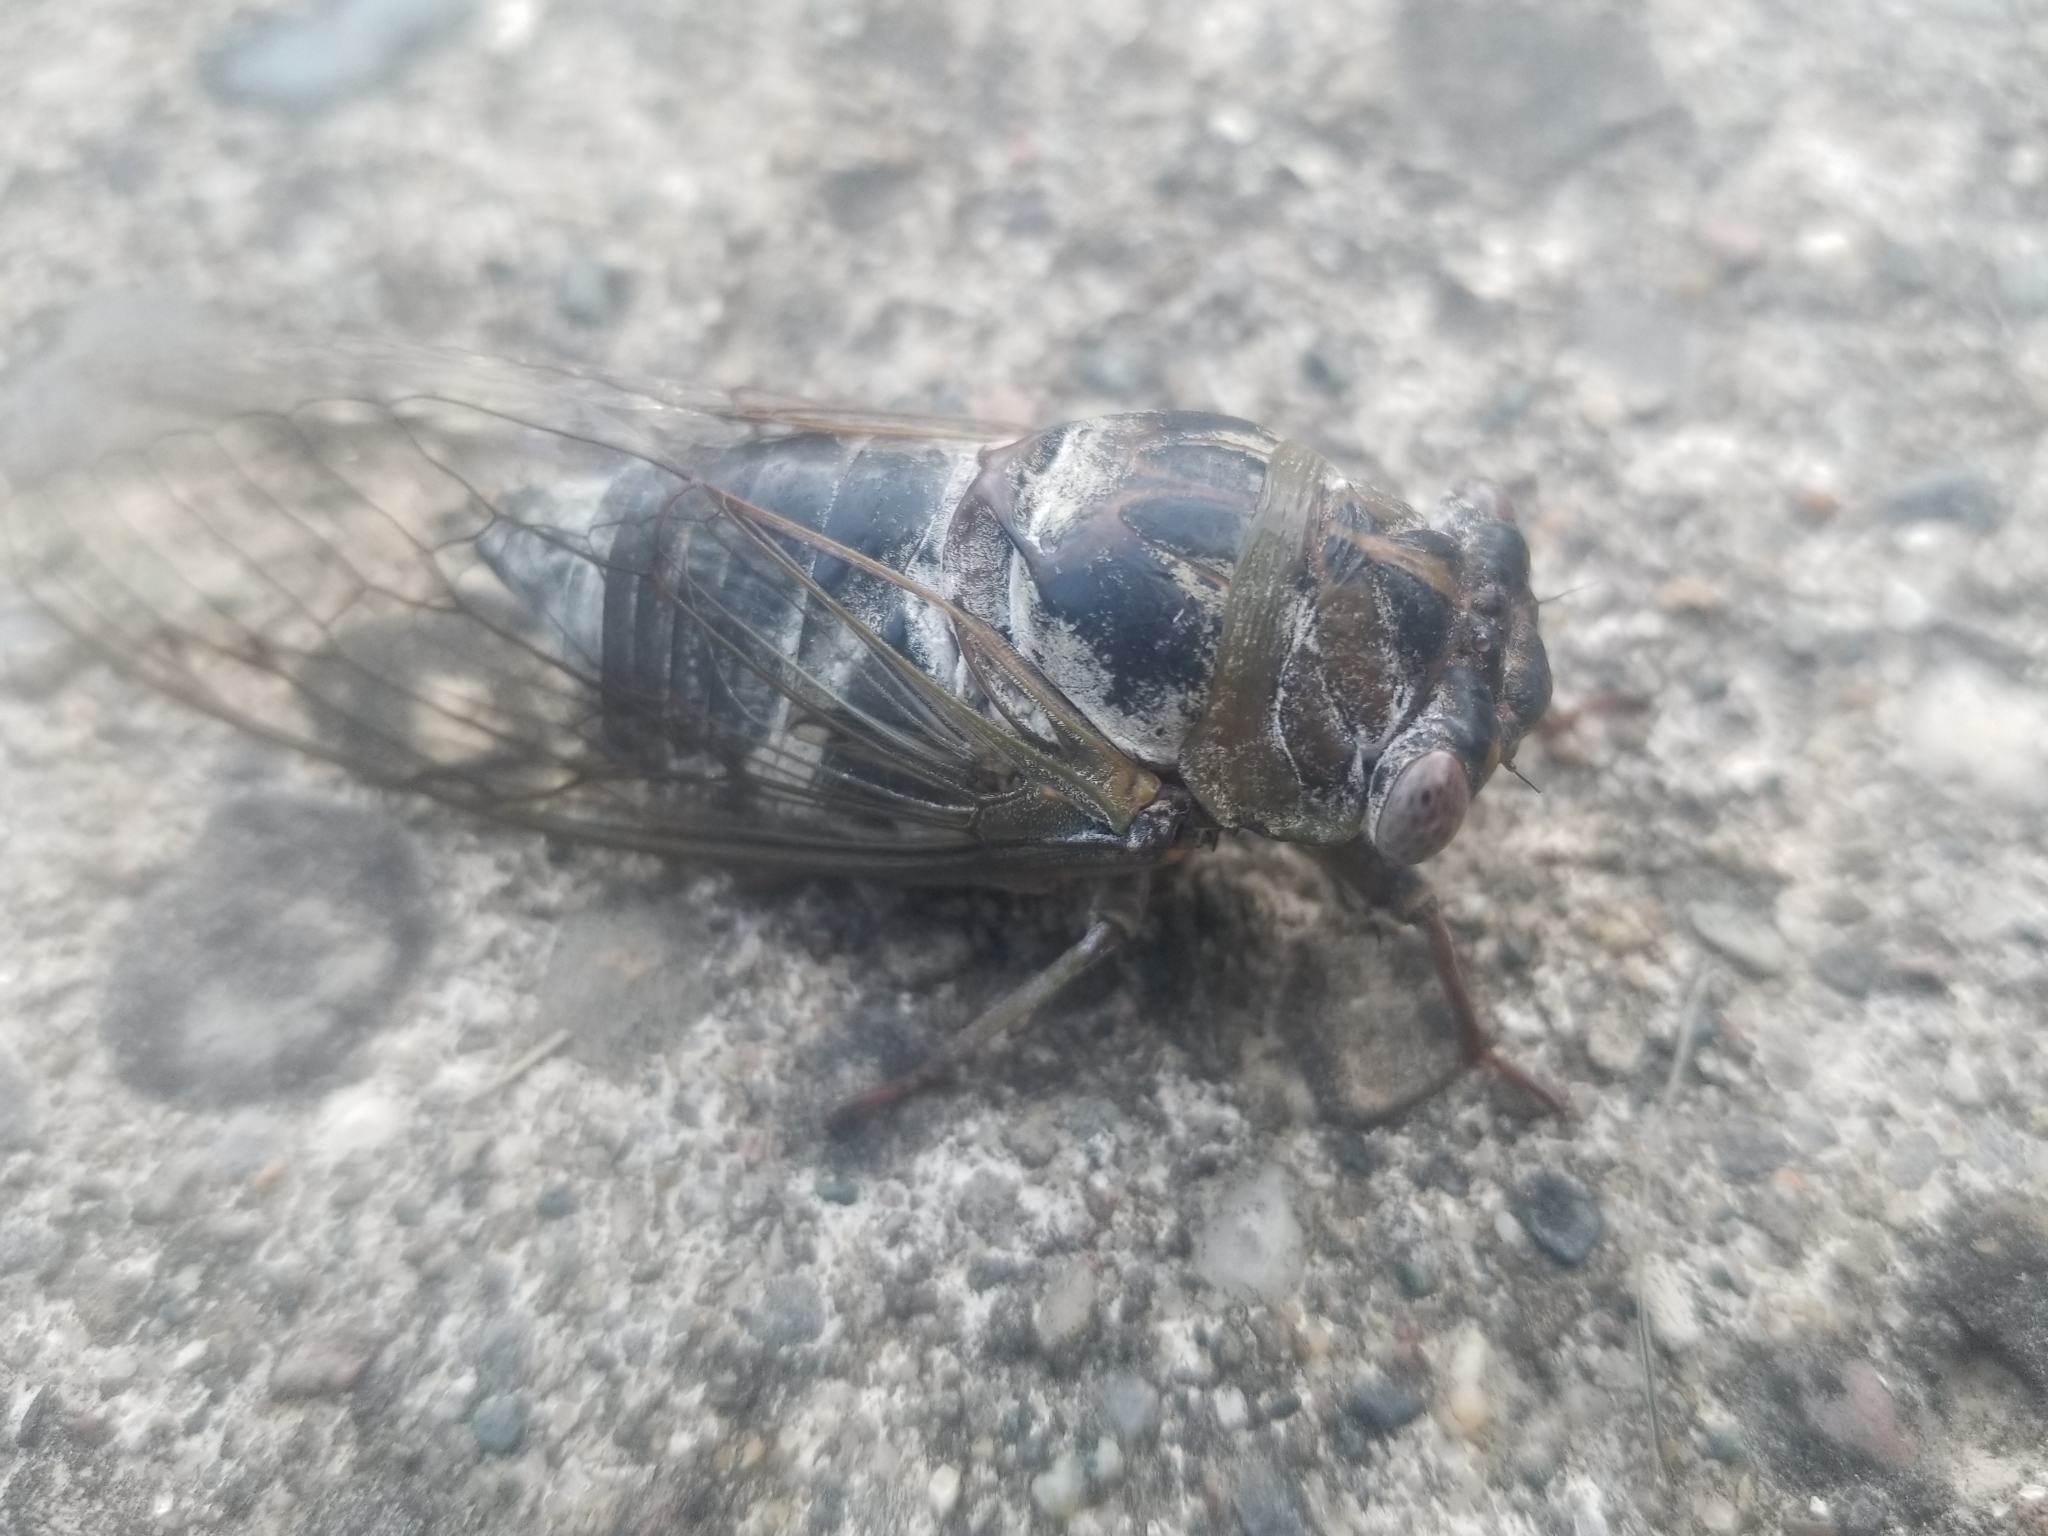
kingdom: Animalia
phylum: Arthropoda
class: Insecta
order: Hemiptera
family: Cicadidae
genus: Diceroprocta
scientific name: Diceroprocta grossa
